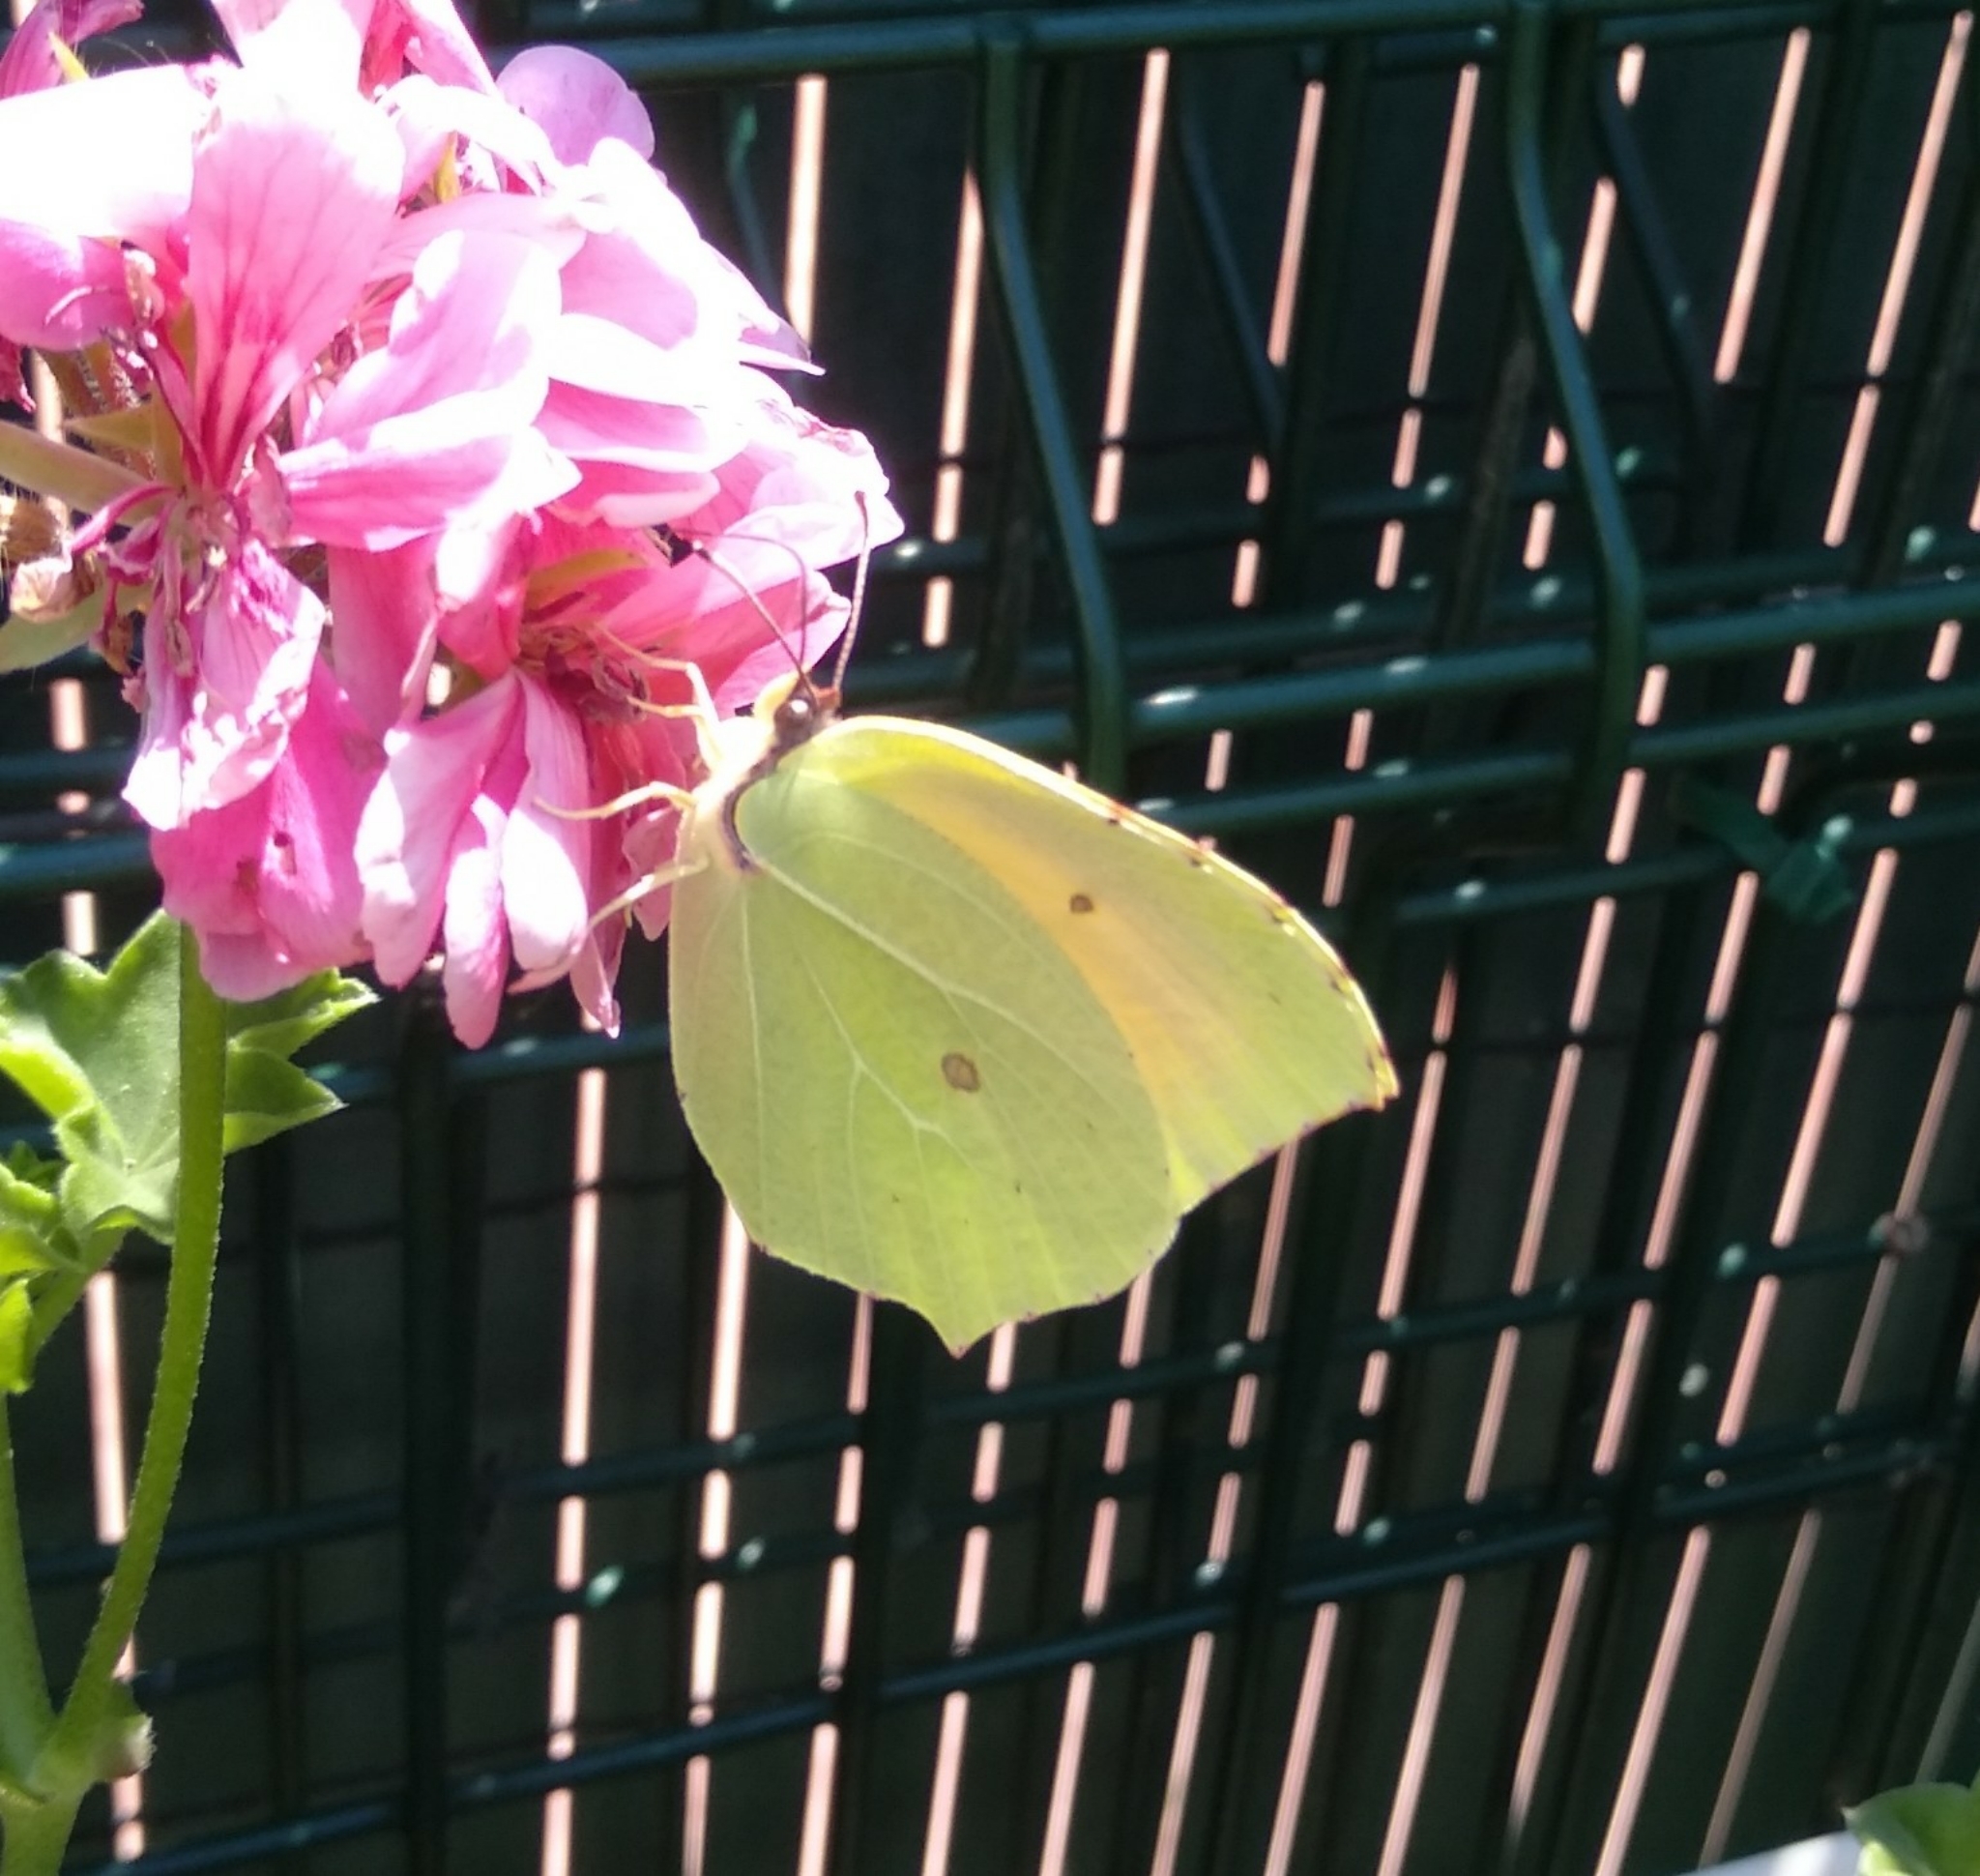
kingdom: Animalia
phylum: Arthropoda
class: Insecta
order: Lepidoptera
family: Pieridae
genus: Gonepteryx
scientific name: Gonepteryx cleopatra
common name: Cleopatra
